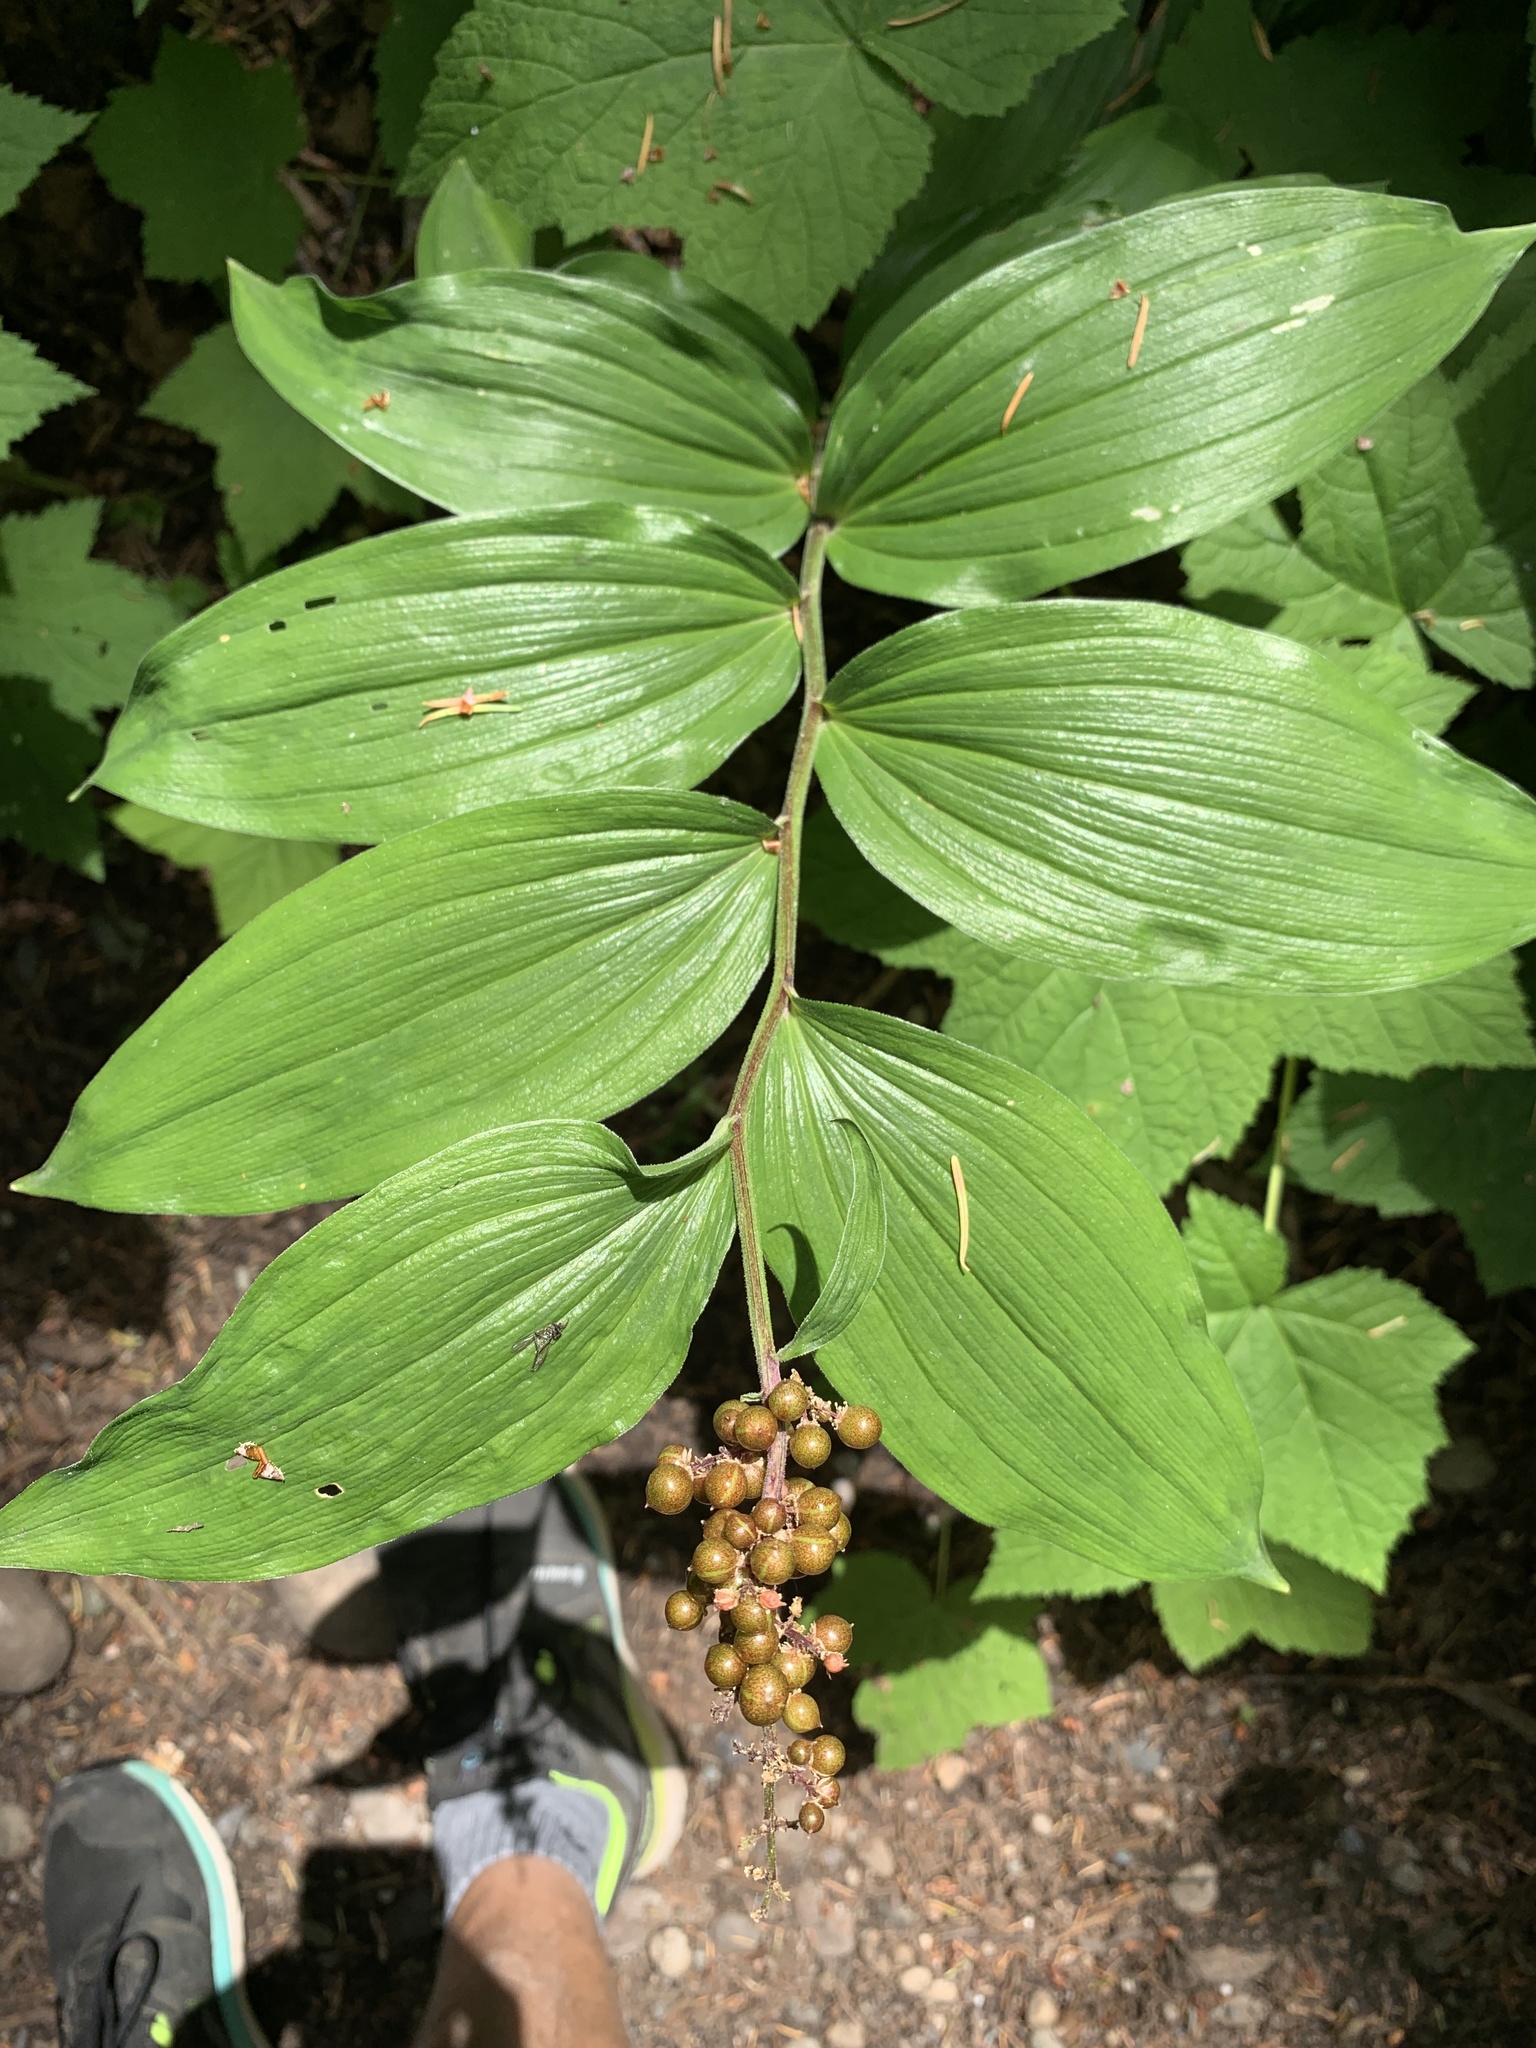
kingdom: Plantae
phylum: Tracheophyta
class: Liliopsida
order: Asparagales
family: Asparagaceae
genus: Maianthemum
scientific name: Maianthemum racemosum
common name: False spikenard
